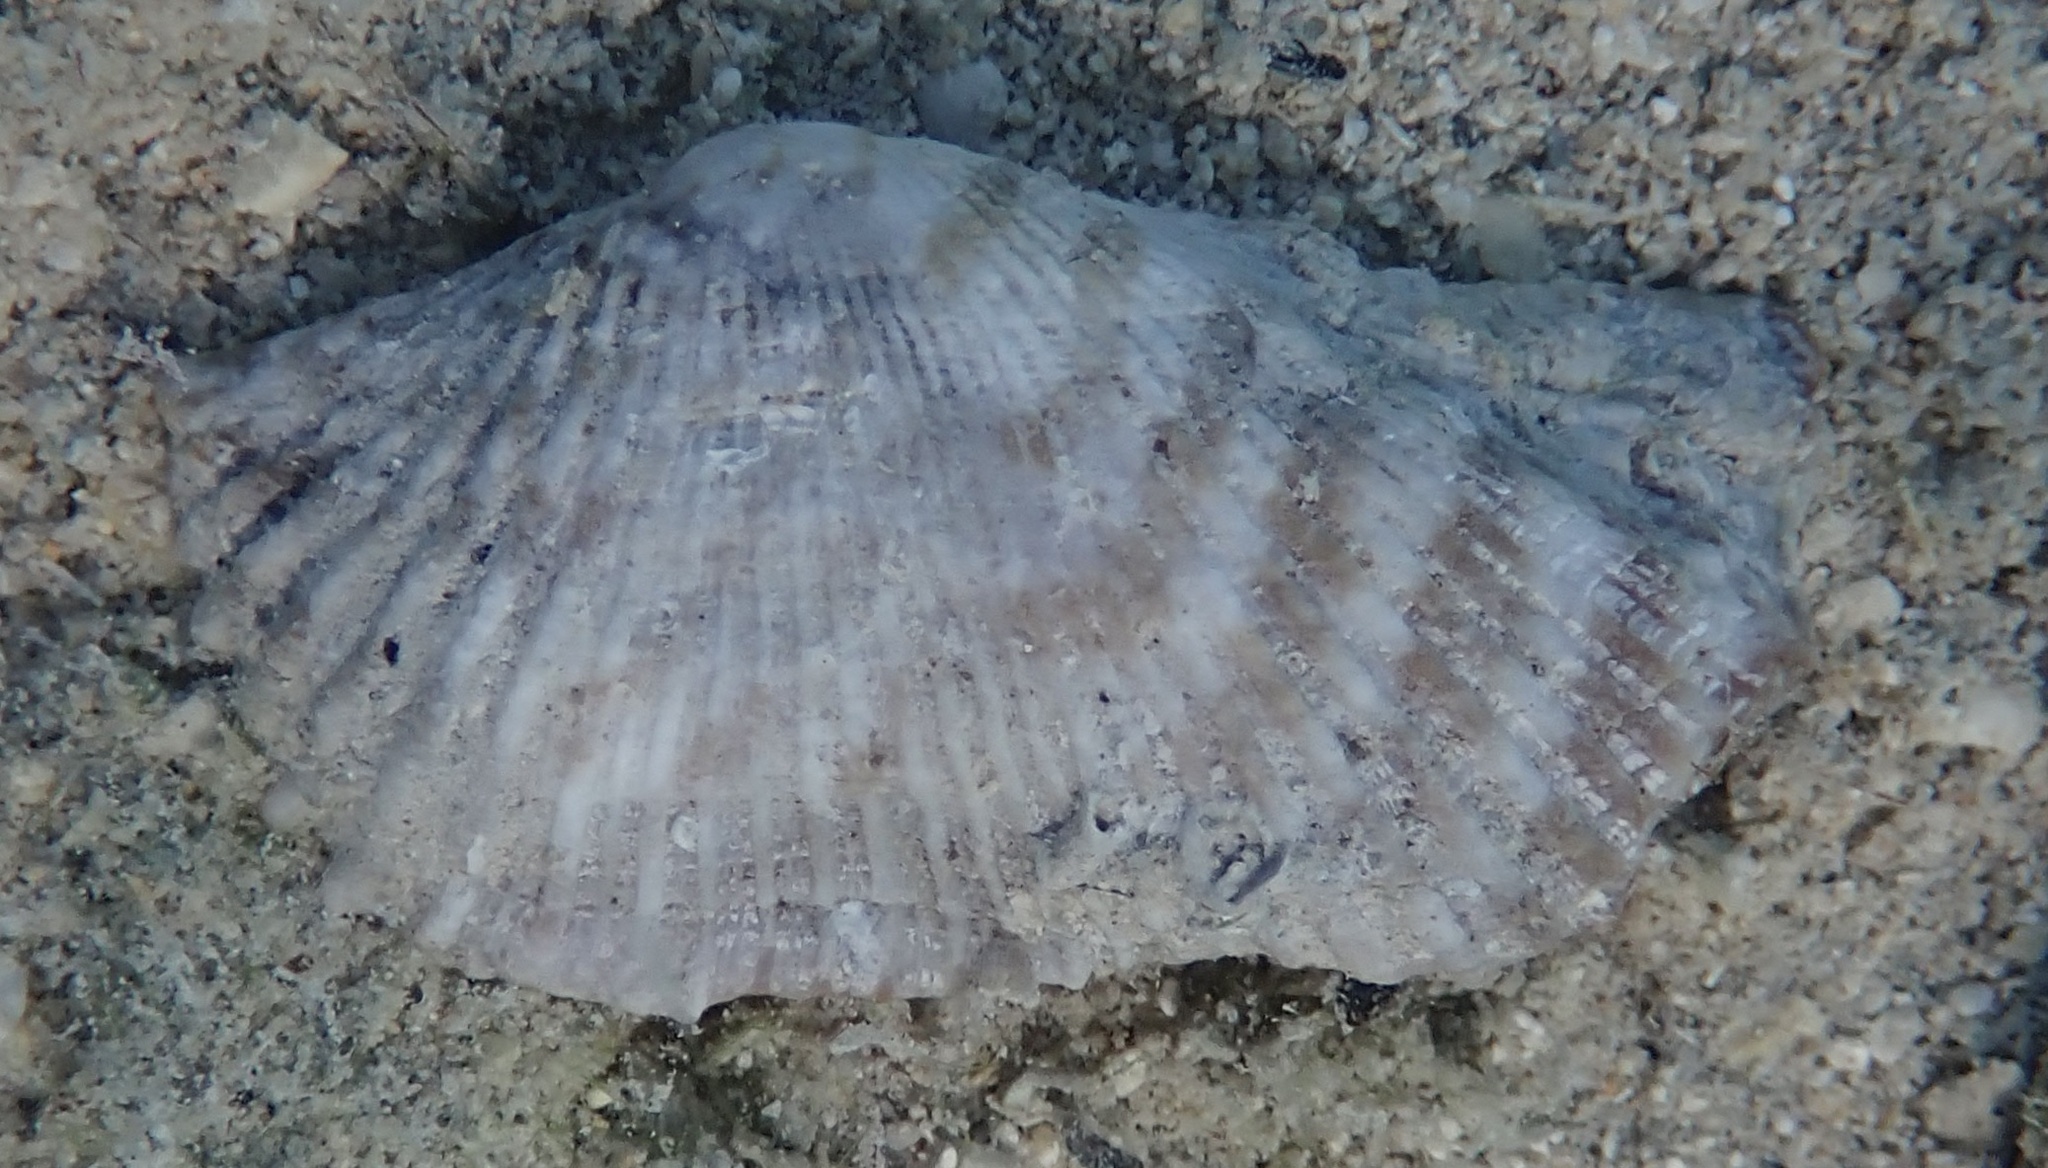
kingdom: Animalia
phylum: Mollusca
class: Bivalvia
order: Arcida
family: Arcidae
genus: Arca
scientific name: Arca zebra
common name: Atlantic turkey wing
